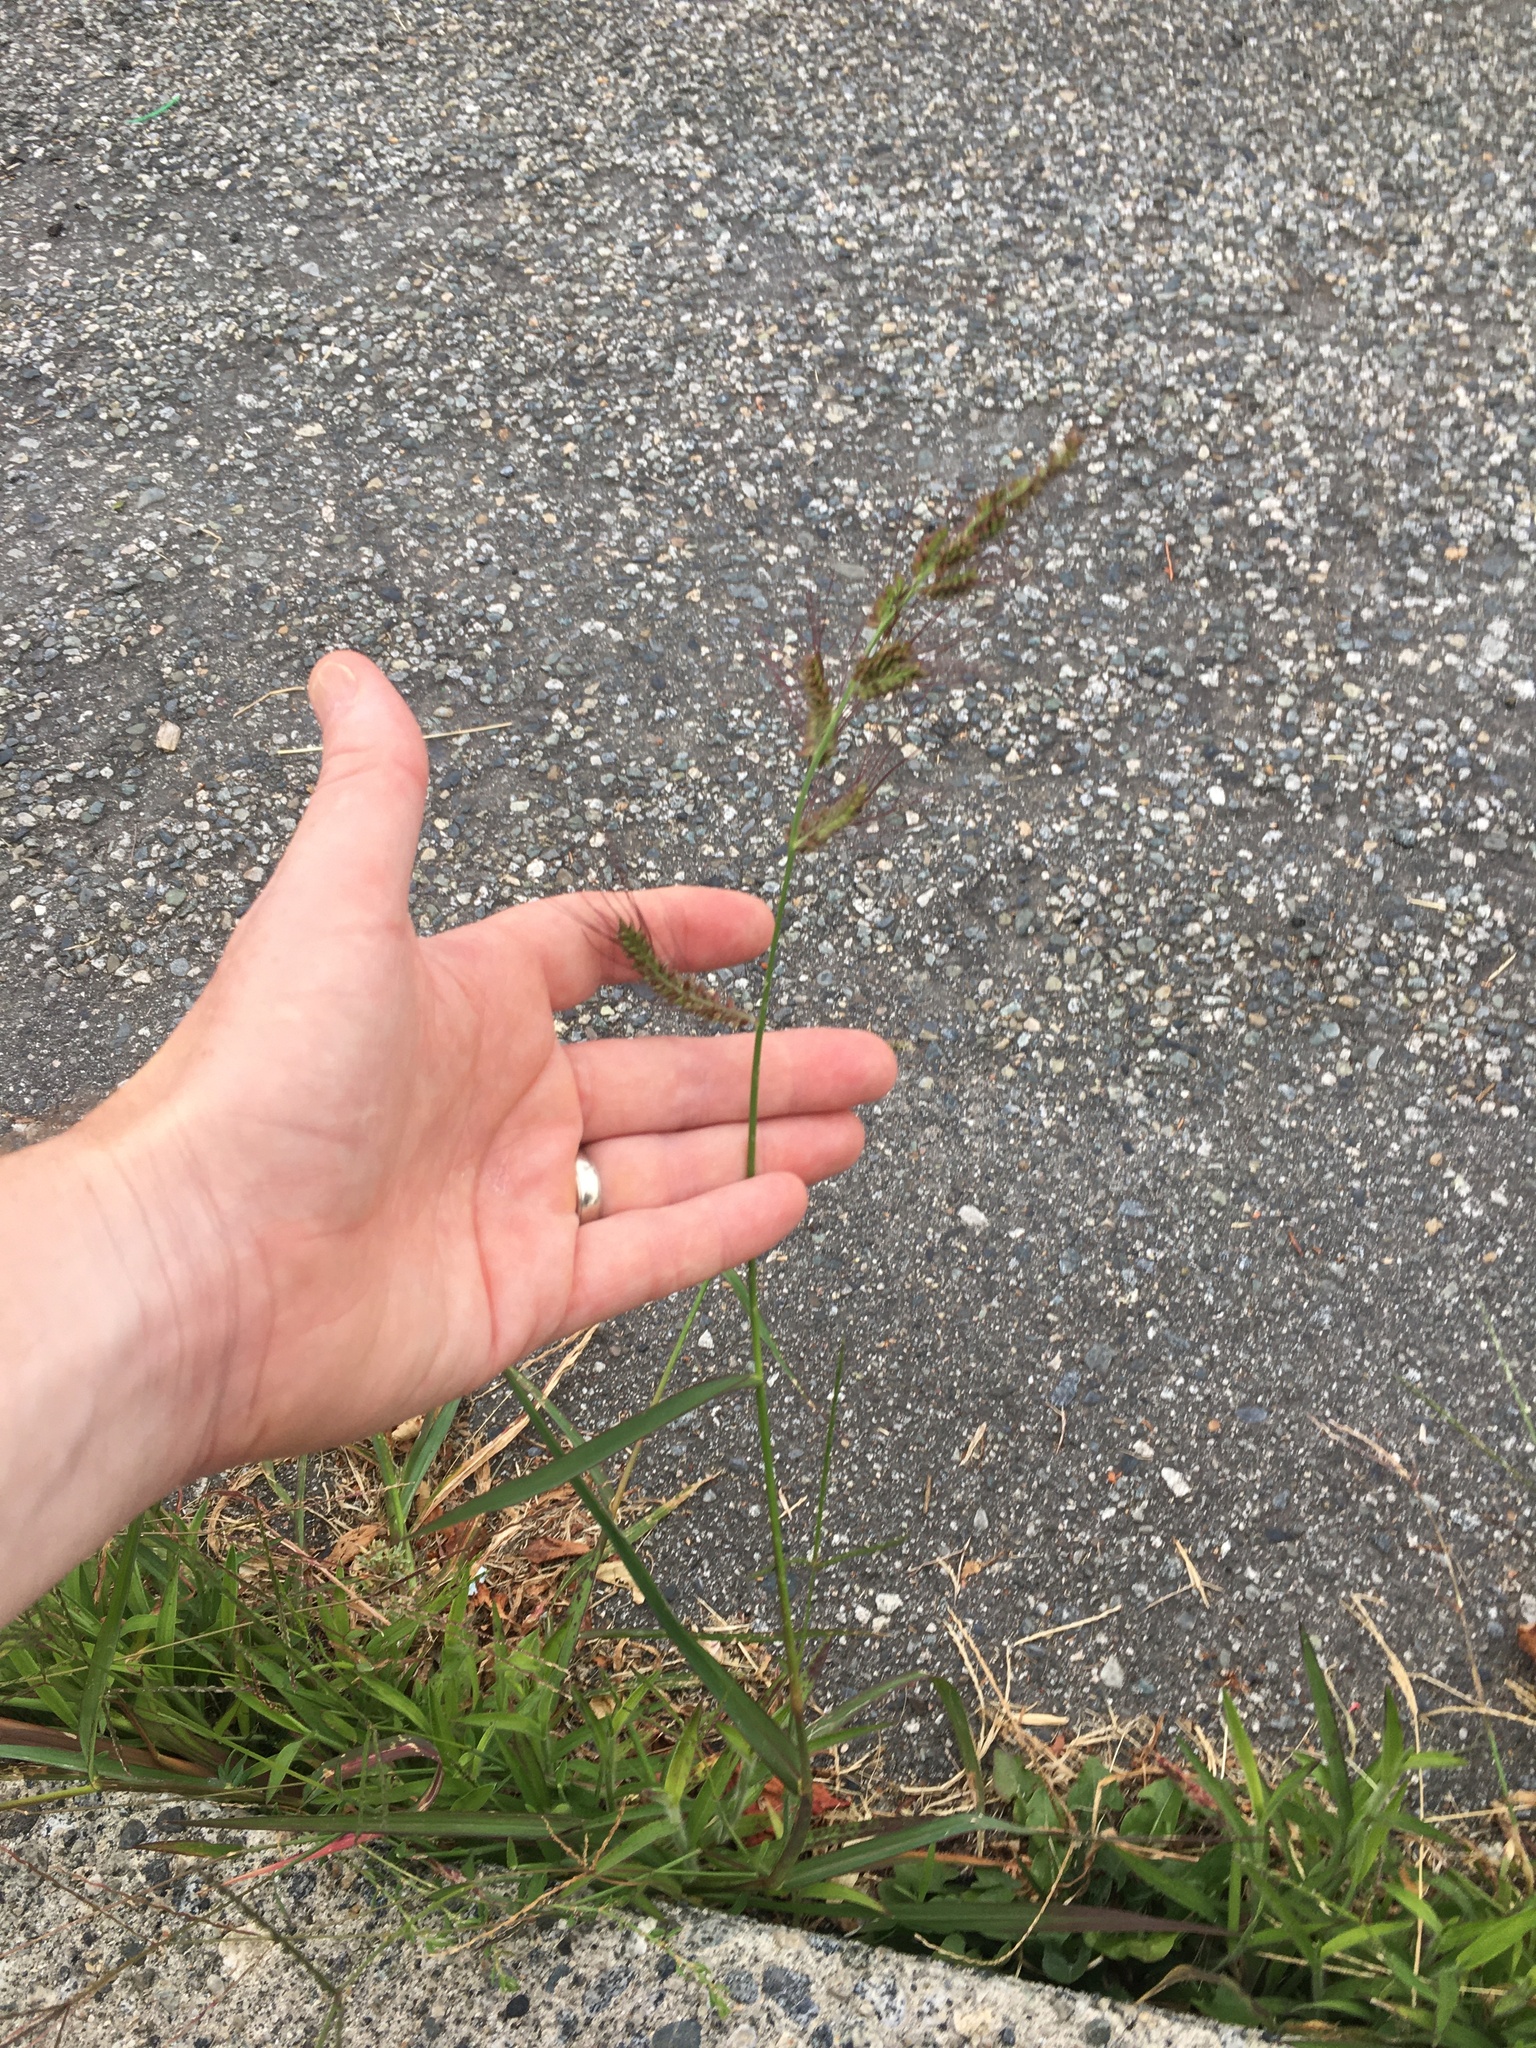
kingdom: Plantae
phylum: Tracheophyta
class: Liliopsida
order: Poales
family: Poaceae
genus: Echinochloa
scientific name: Echinochloa crus-galli
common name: Cockspur
